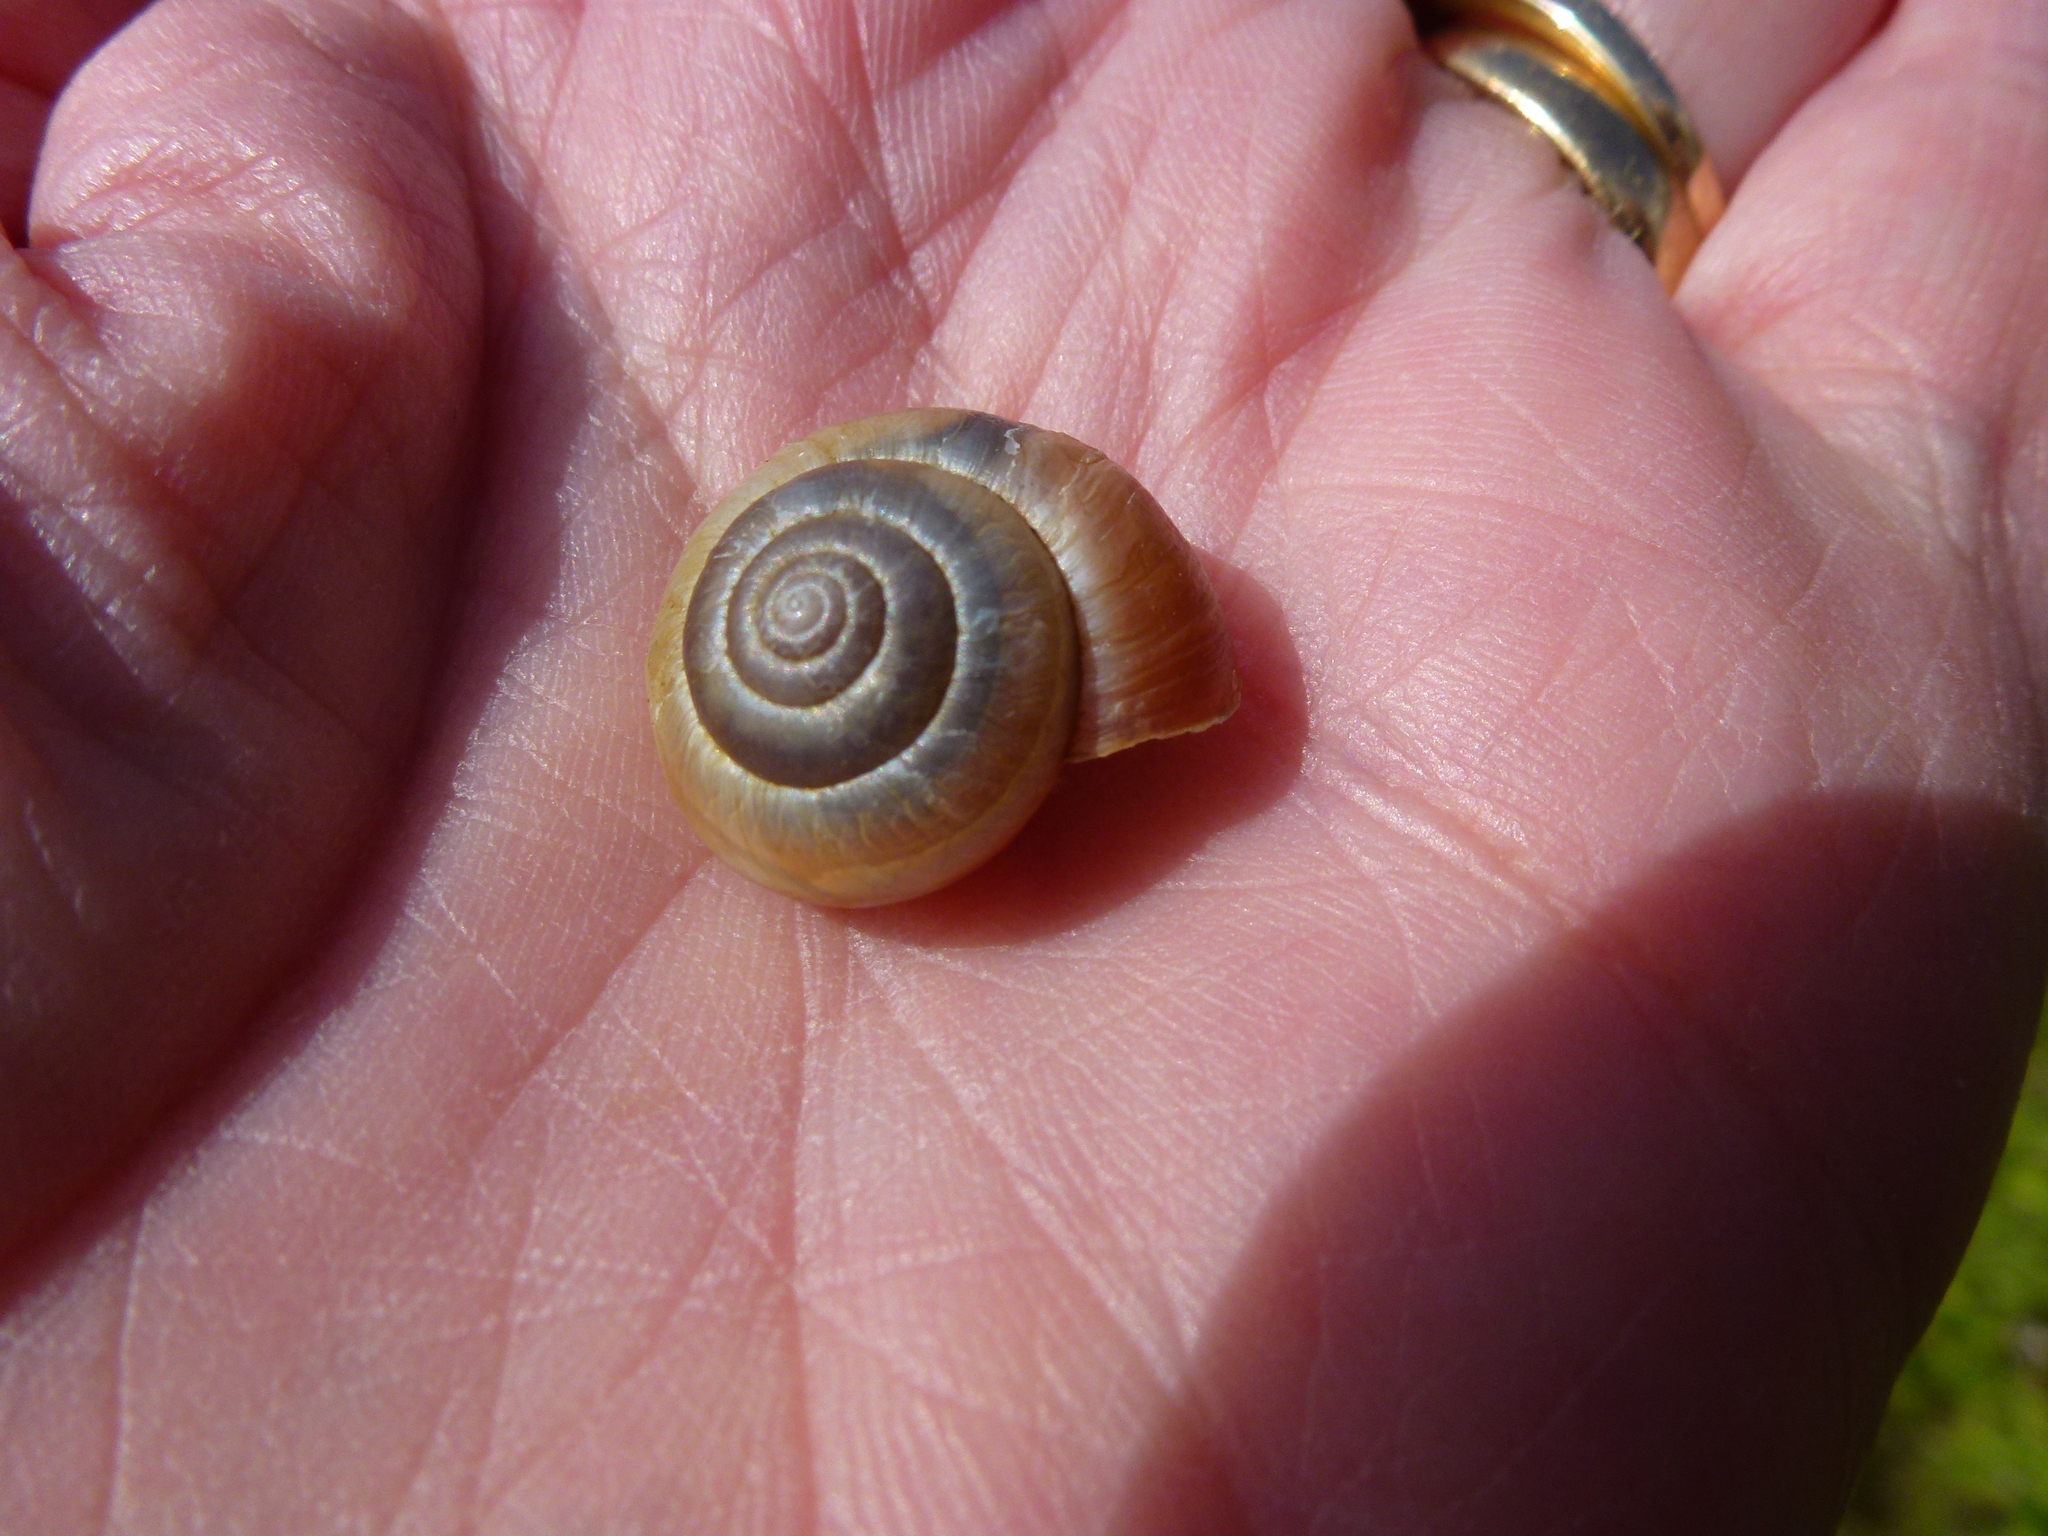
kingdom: Animalia
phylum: Mollusca
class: Gastropoda
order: Stylommatophora
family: Hygromiidae
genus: Monacha
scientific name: Monacha cantiana
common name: Kentish snail
